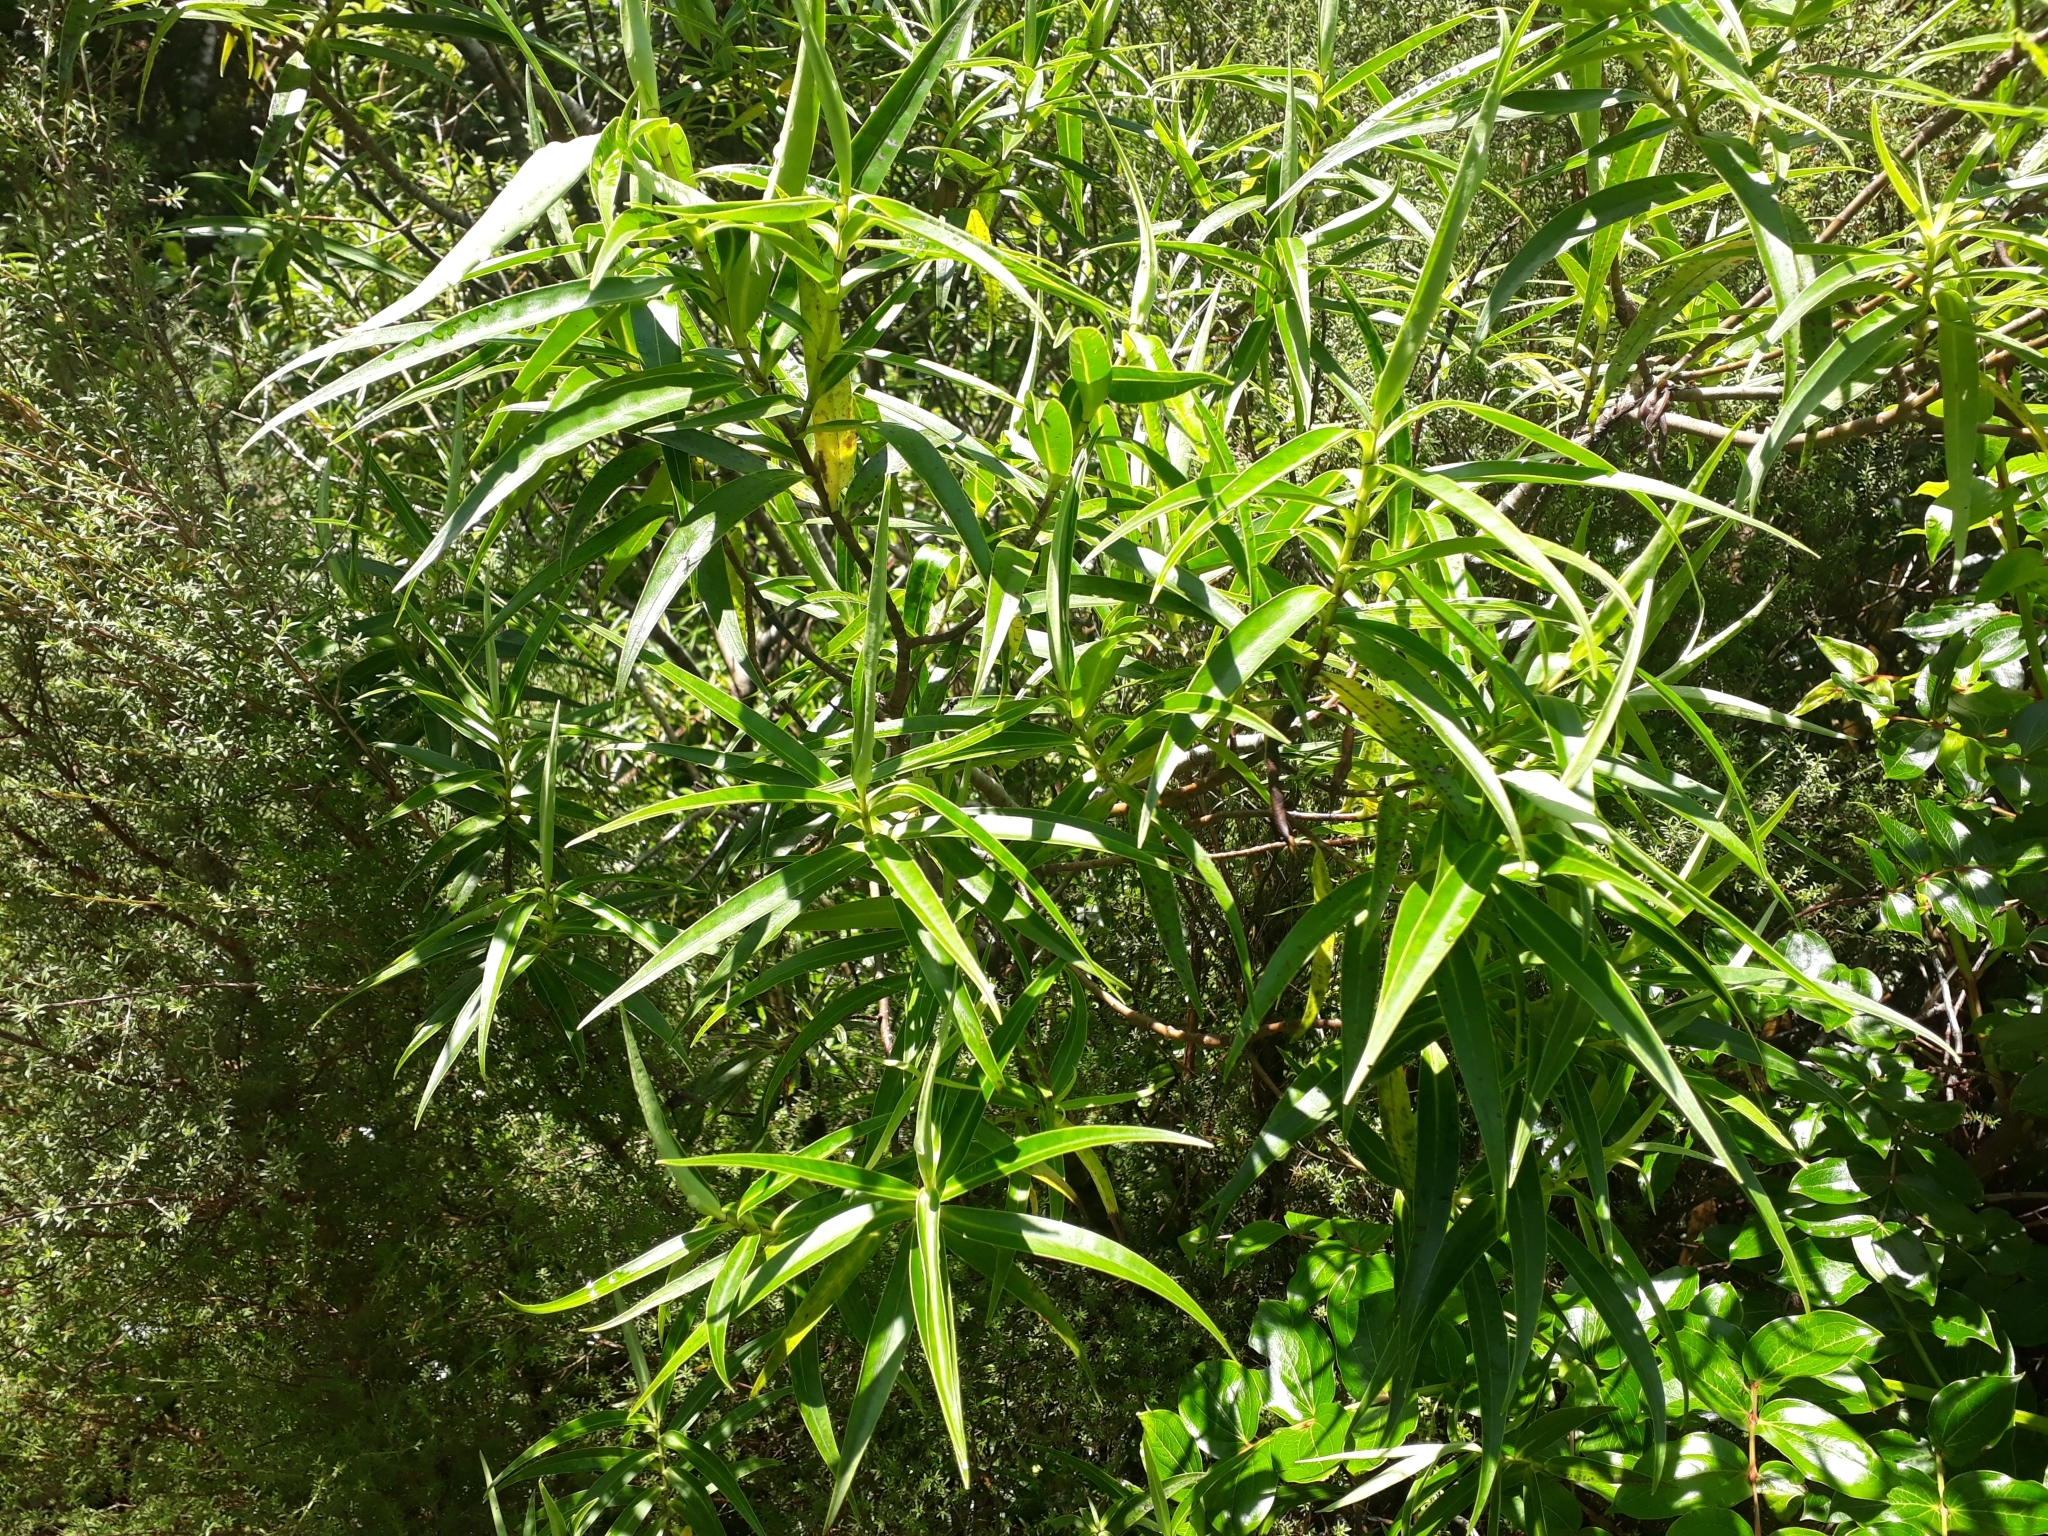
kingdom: Plantae
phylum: Tracheophyta
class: Magnoliopsida
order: Lamiales
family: Plantaginaceae
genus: Veronica
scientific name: Veronica stricta
